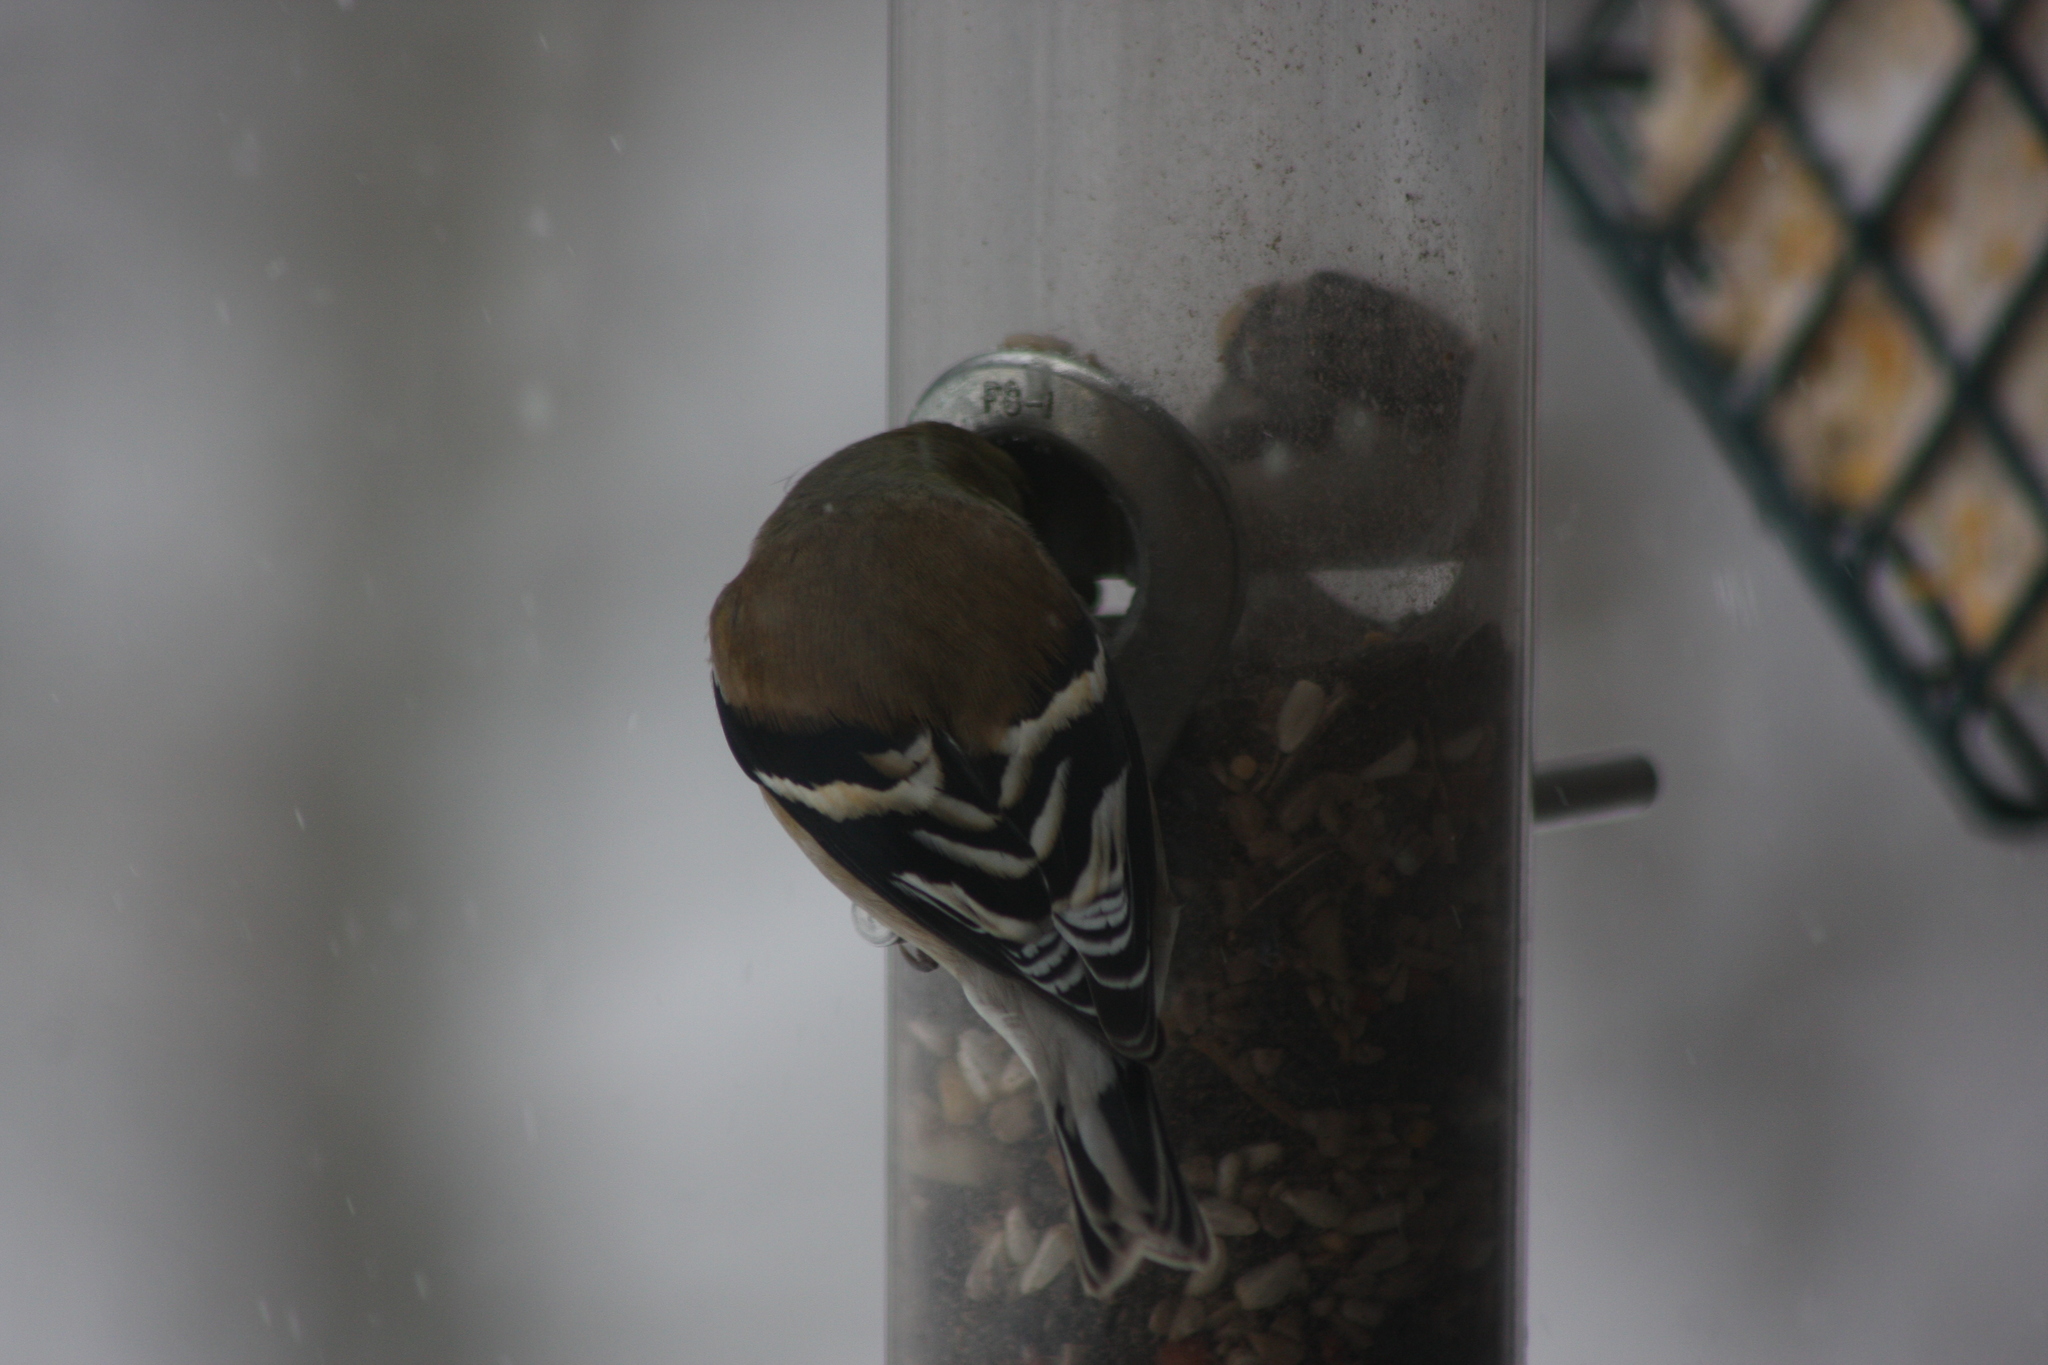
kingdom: Animalia
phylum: Chordata
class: Aves
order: Passeriformes
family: Fringillidae
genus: Spinus
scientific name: Spinus tristis
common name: American goldfinch
